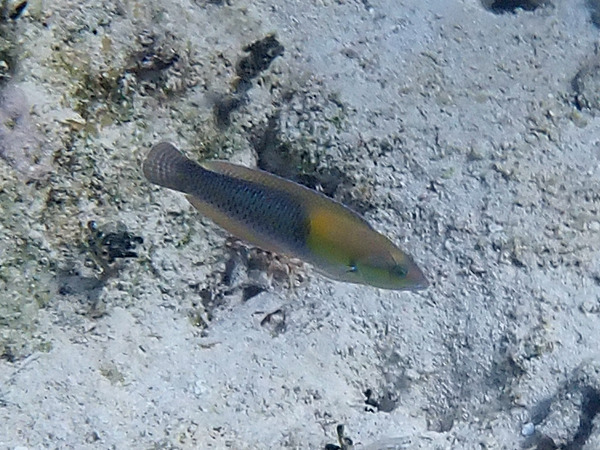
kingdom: Animalia
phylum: Chordata
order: Perciformes
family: Labridae
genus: Halichoeres
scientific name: Halichoeres garnoti
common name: Yellowhead wrasse
